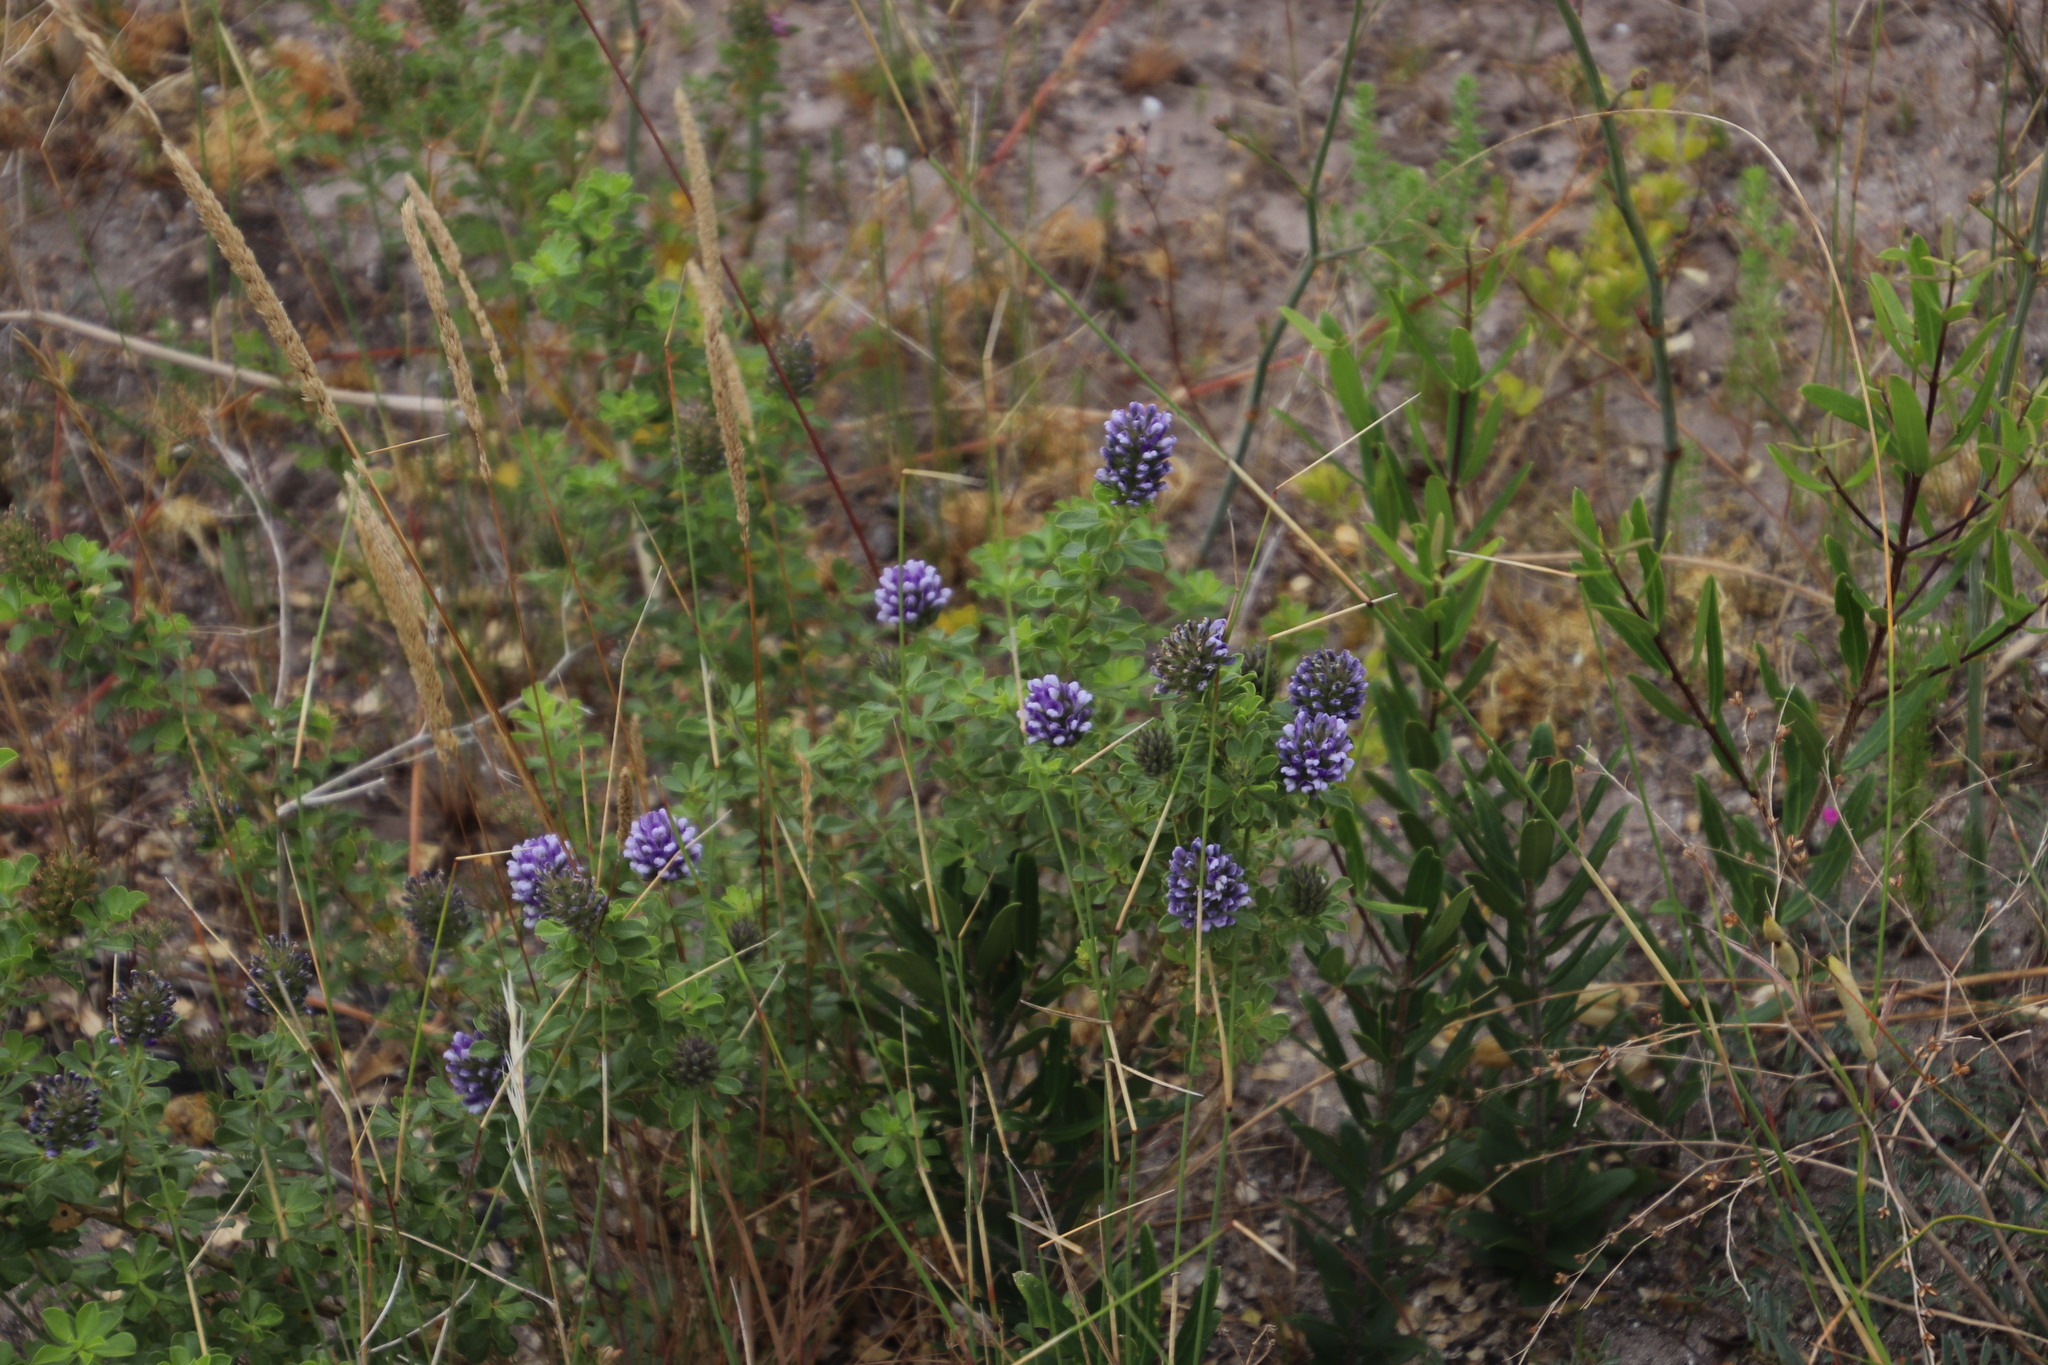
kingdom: Plantae
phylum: Tracheophyta
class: Magnoliopsida
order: Fabales
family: Fabaceae
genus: Psoralea
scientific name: Psoralea bracteolata
